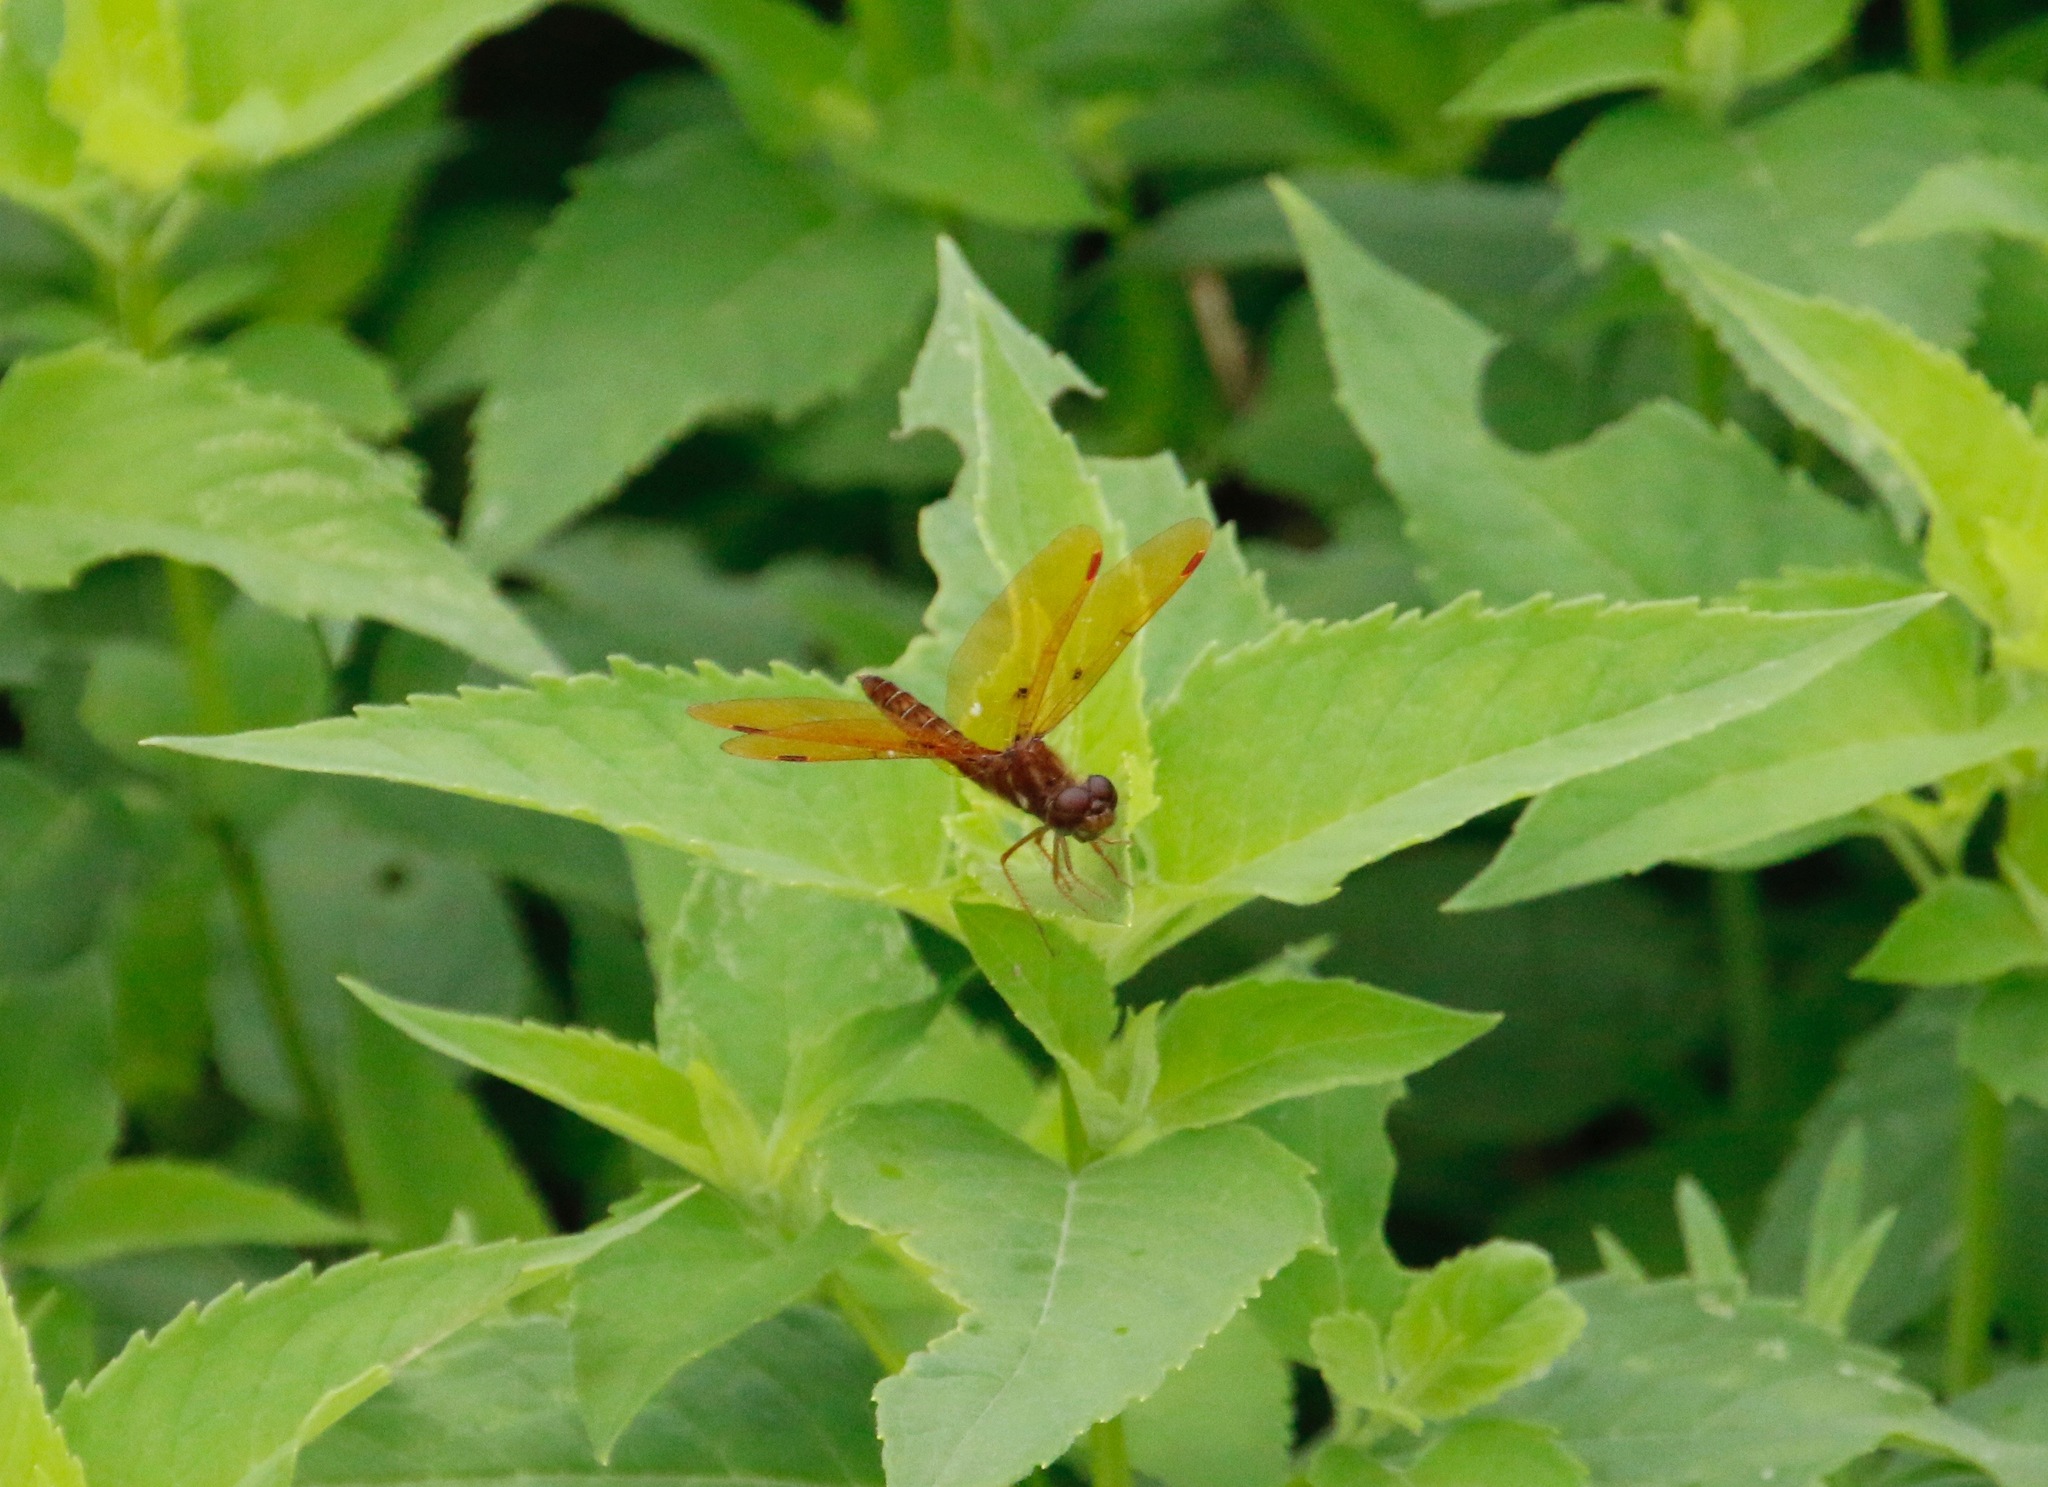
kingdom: Animalia
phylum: Arthropoda
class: Insecta
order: Odonata
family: Libellulidae
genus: Perithemis
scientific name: Perithemis tenera
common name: Eastern amberwing
